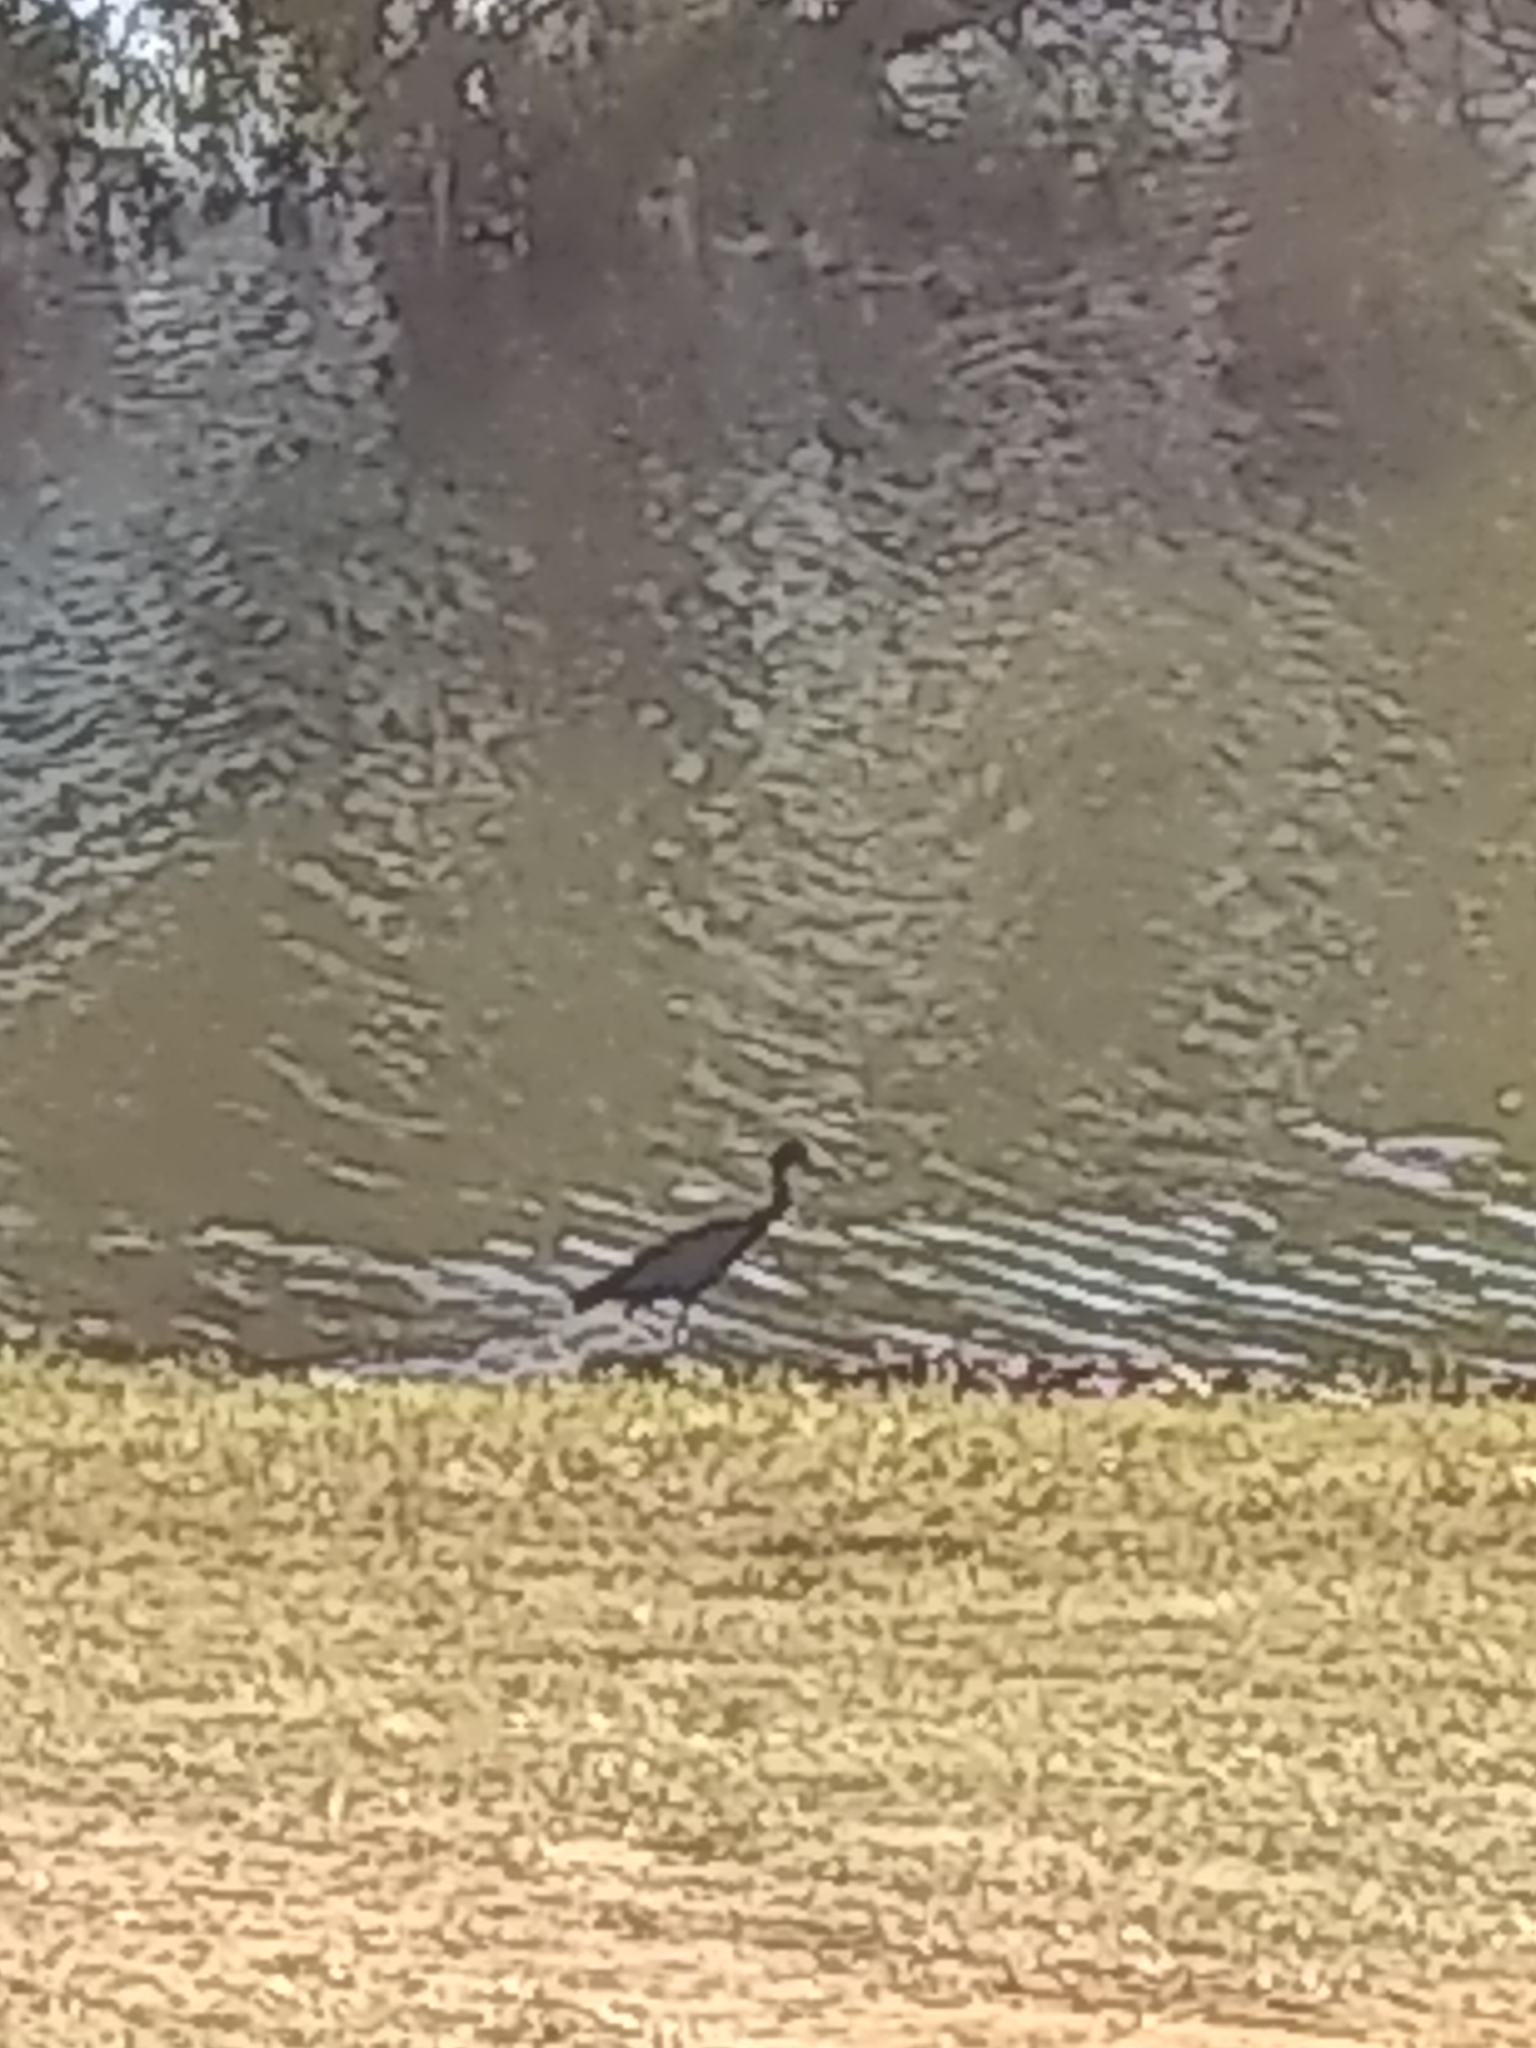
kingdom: Animalia
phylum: Chordata
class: Aves
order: Pelecaniformes
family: Ardeidae
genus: Egretta
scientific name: Egretta caerulea
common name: Little blue heron
